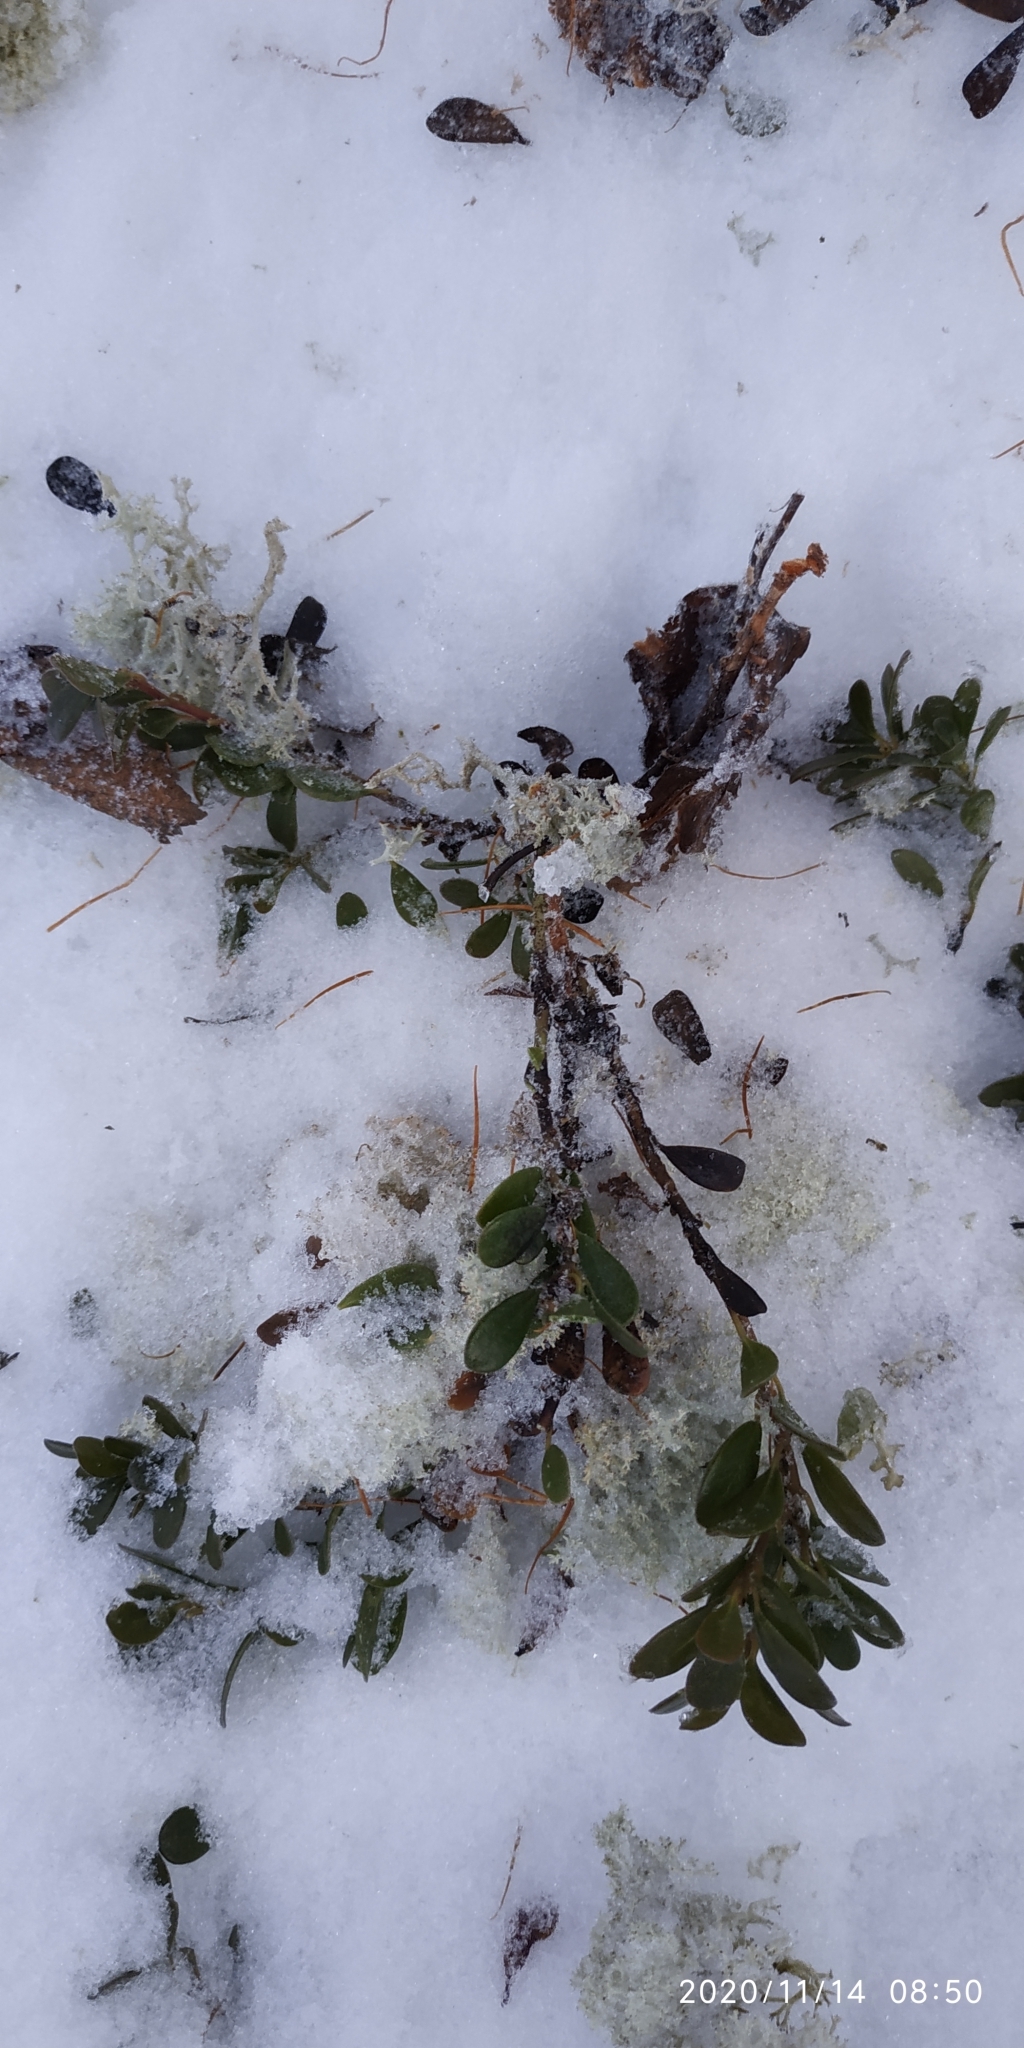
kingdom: Plantae
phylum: Tracheophyta
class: Magnoliopsida
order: Ericales
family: Ericaceae
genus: Arctostaphylos
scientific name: Arctostaphylos uva-ursi
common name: Bearberry
